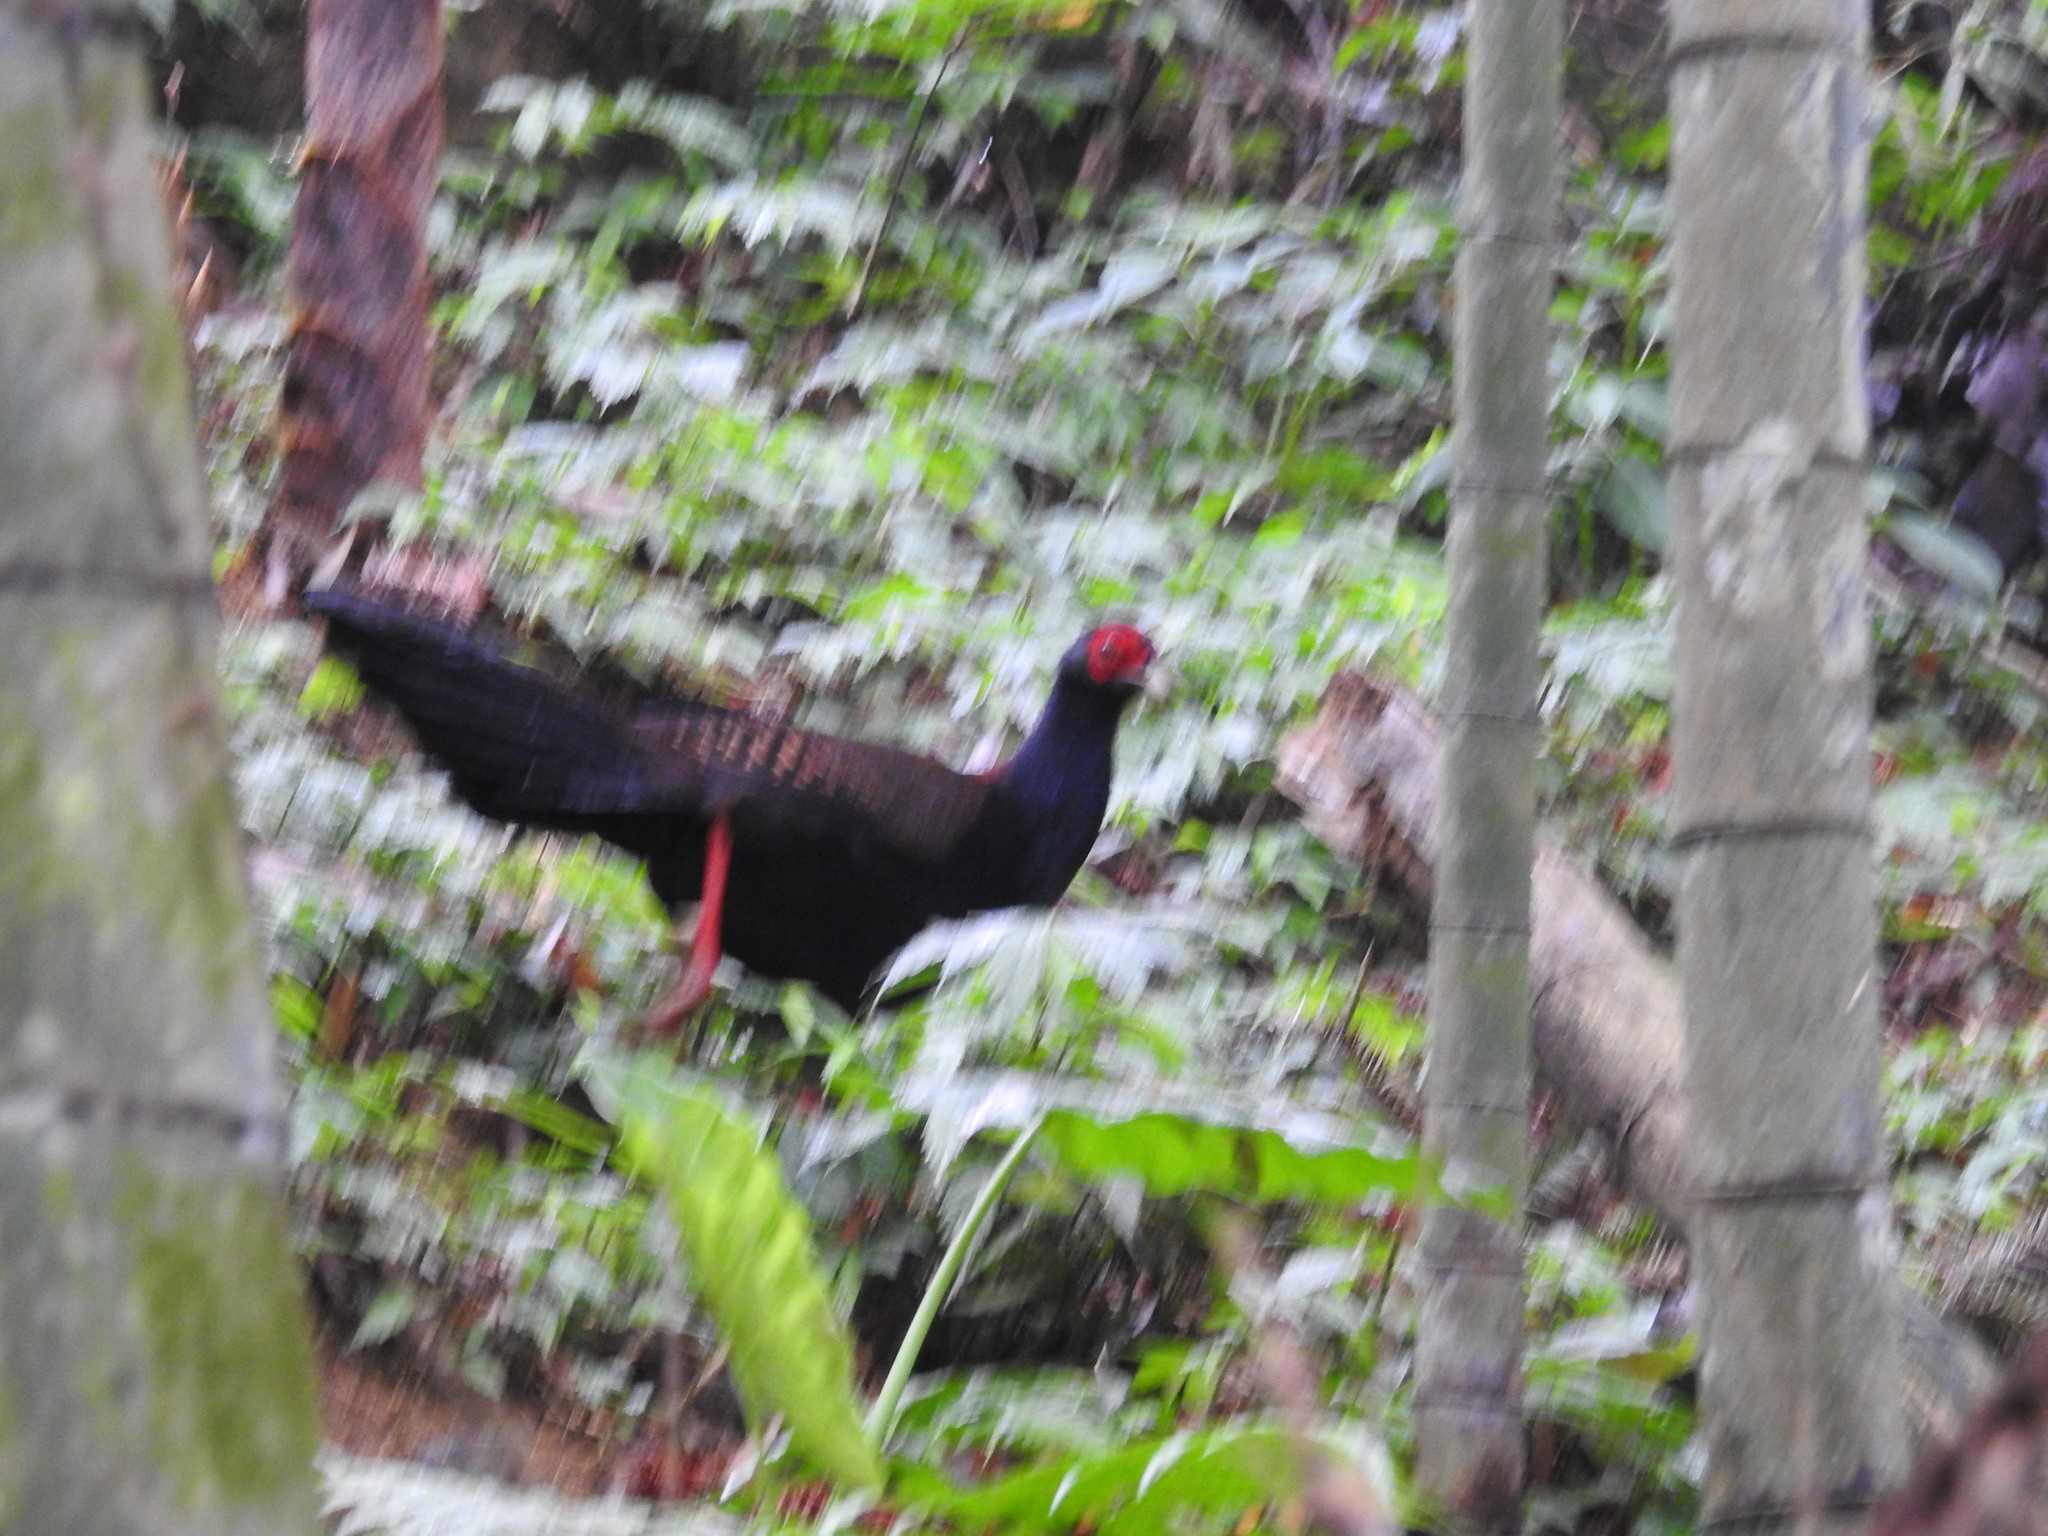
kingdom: Animalia
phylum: Chordata
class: Aves
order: Galliformes
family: Phasianidae
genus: Lophura
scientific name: Lophura swinhoii
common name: Swinhoe's pheasant
